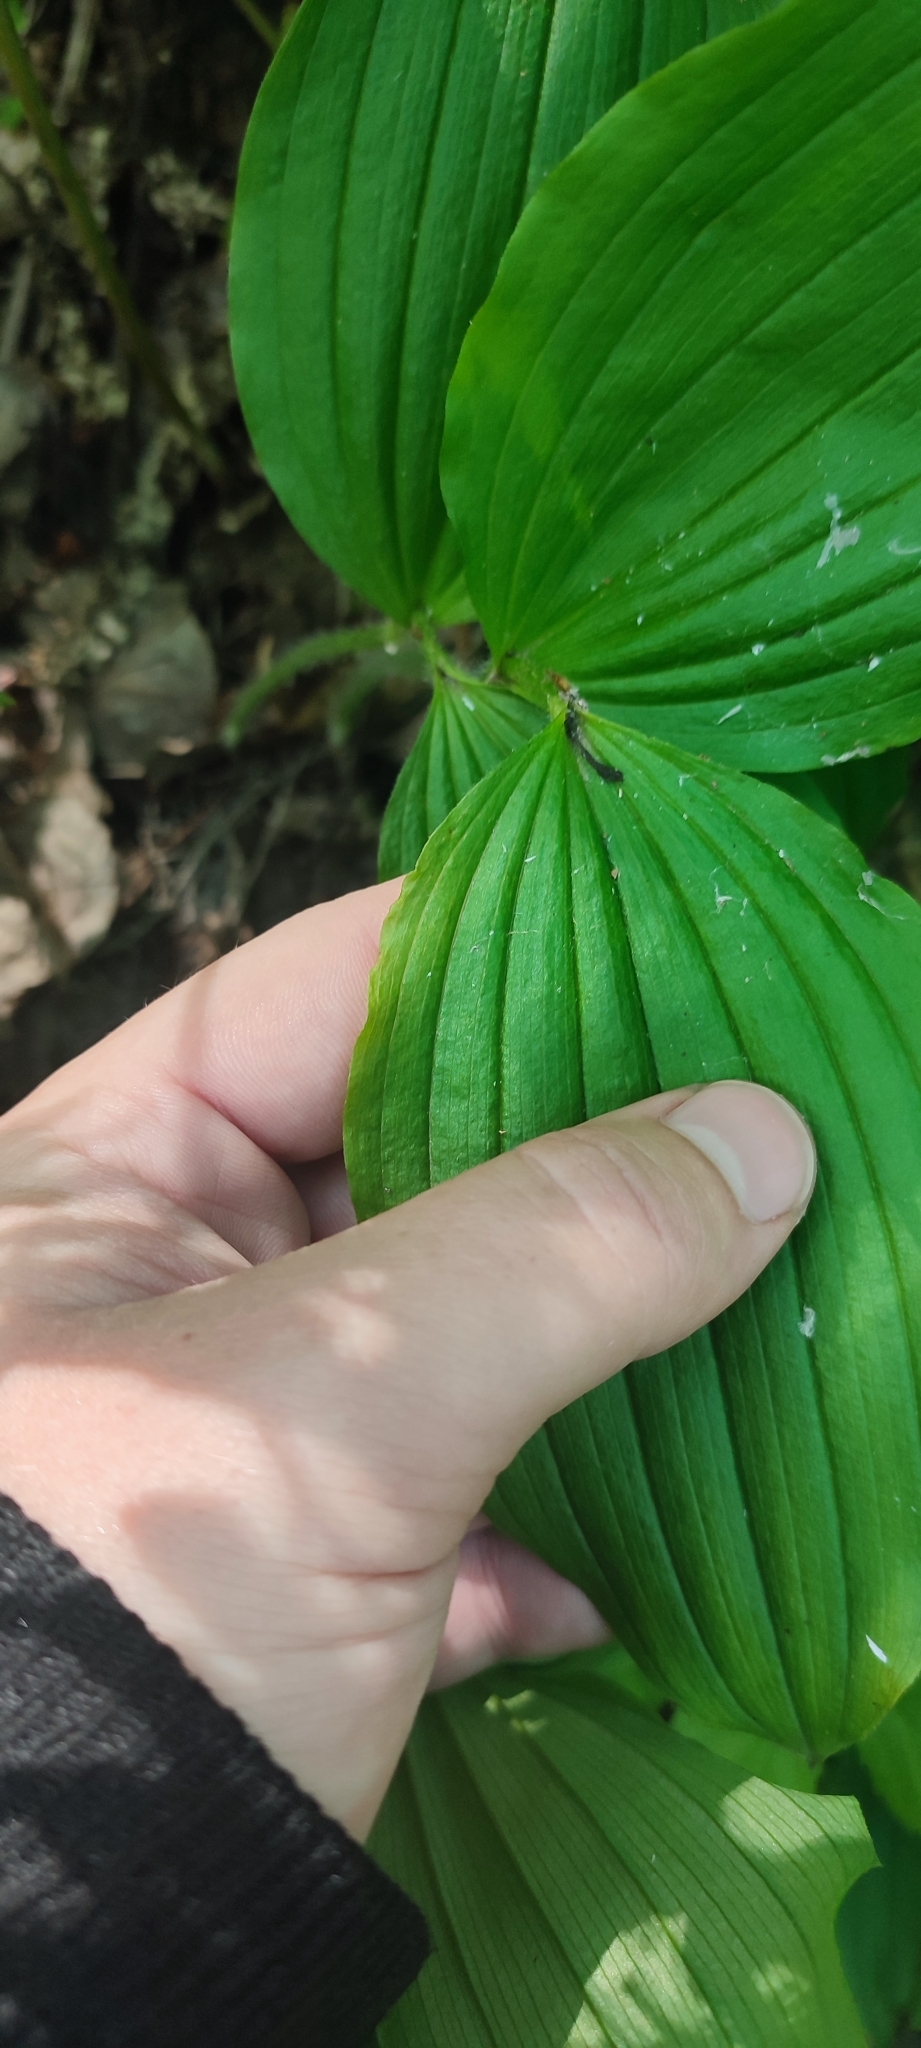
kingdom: Plantae
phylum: Tracheophyta
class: Liliopsida
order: Asparagales
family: Orchidaceae
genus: Cypripedium
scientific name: Cypripedium guttatum
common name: Pink lady slipper
